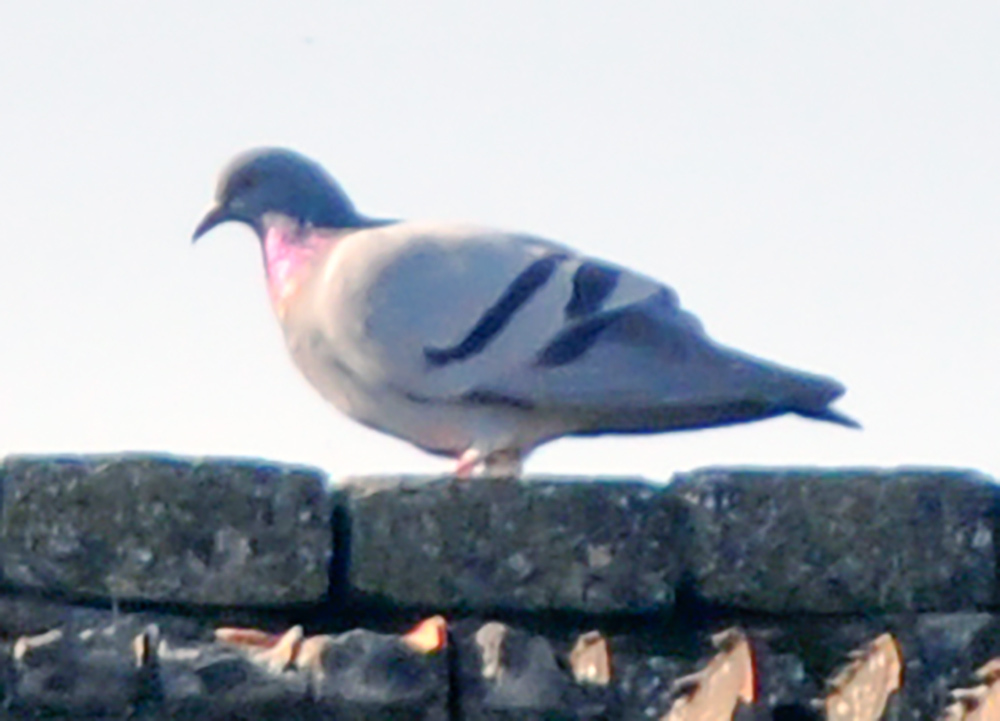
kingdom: Animalia
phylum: Chordata
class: Aves
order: Columbiformes
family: Columbidae
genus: Columba
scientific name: Columba livia
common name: Rock pigeon
